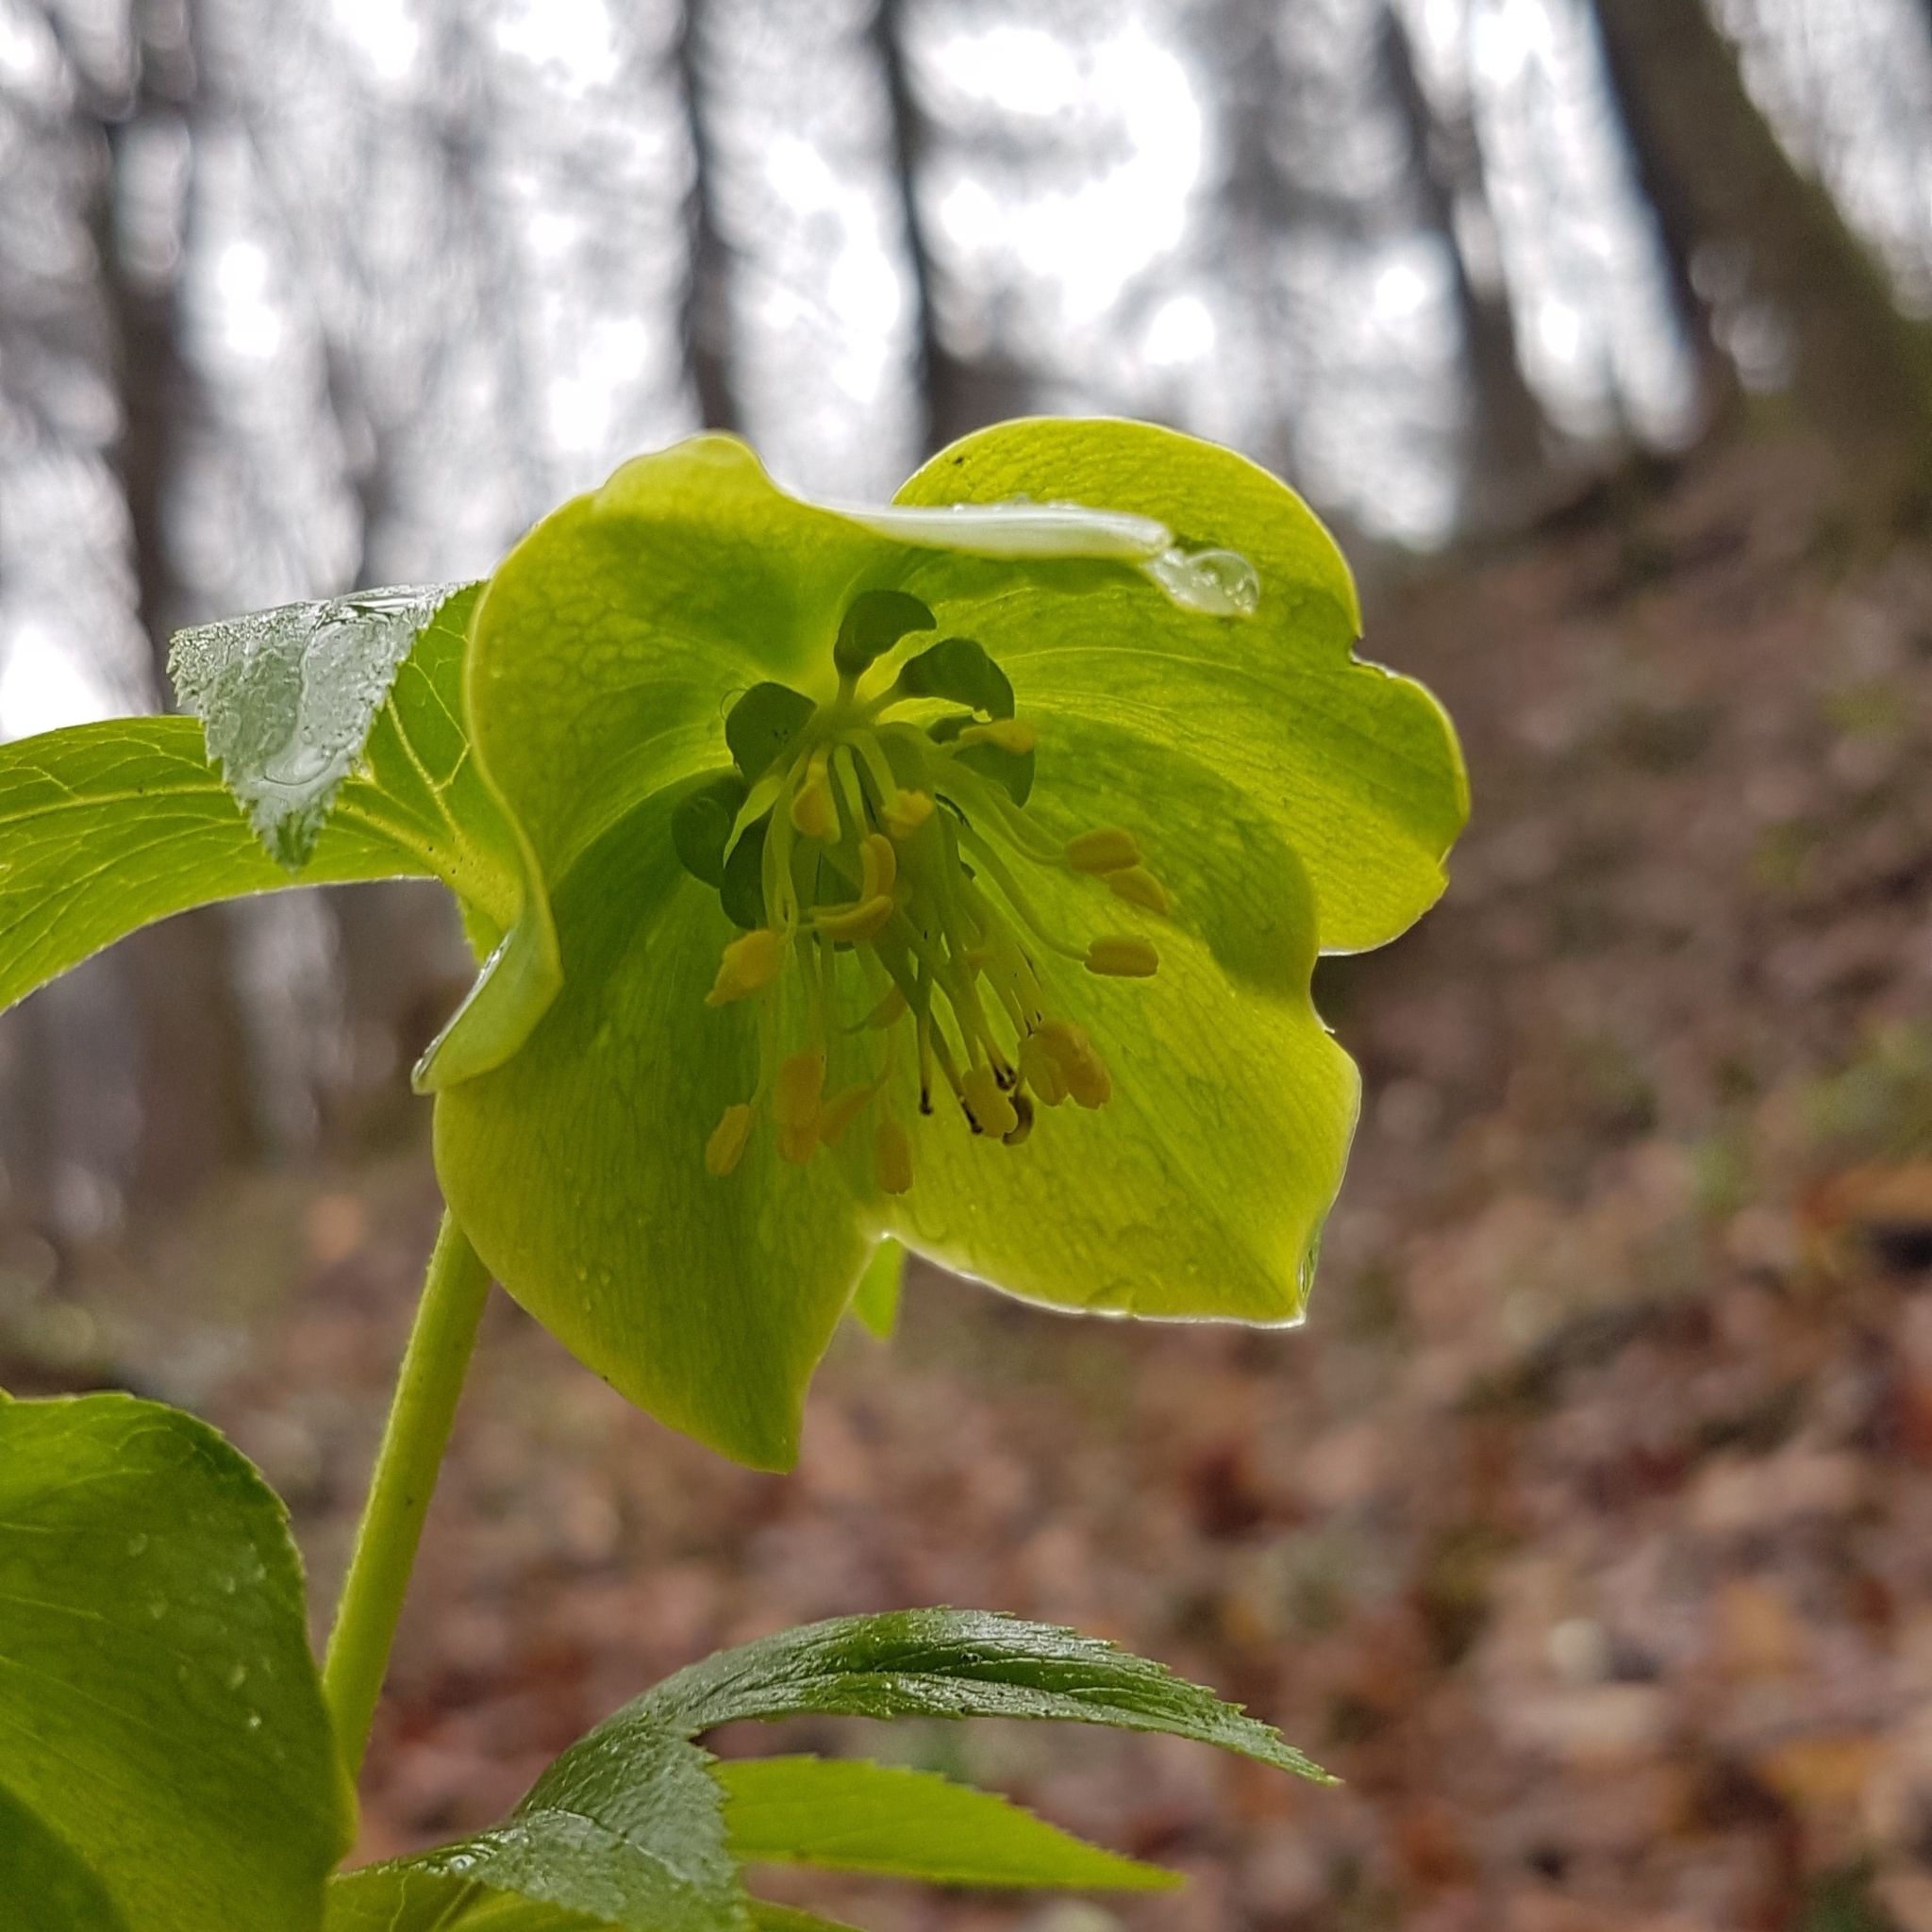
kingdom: Plantae
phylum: Tracheophyta
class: Magnoliopsida
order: Ranunculales
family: Ranunculaceae
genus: Helleborus
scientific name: Helleborus viridis
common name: Green hellebore
